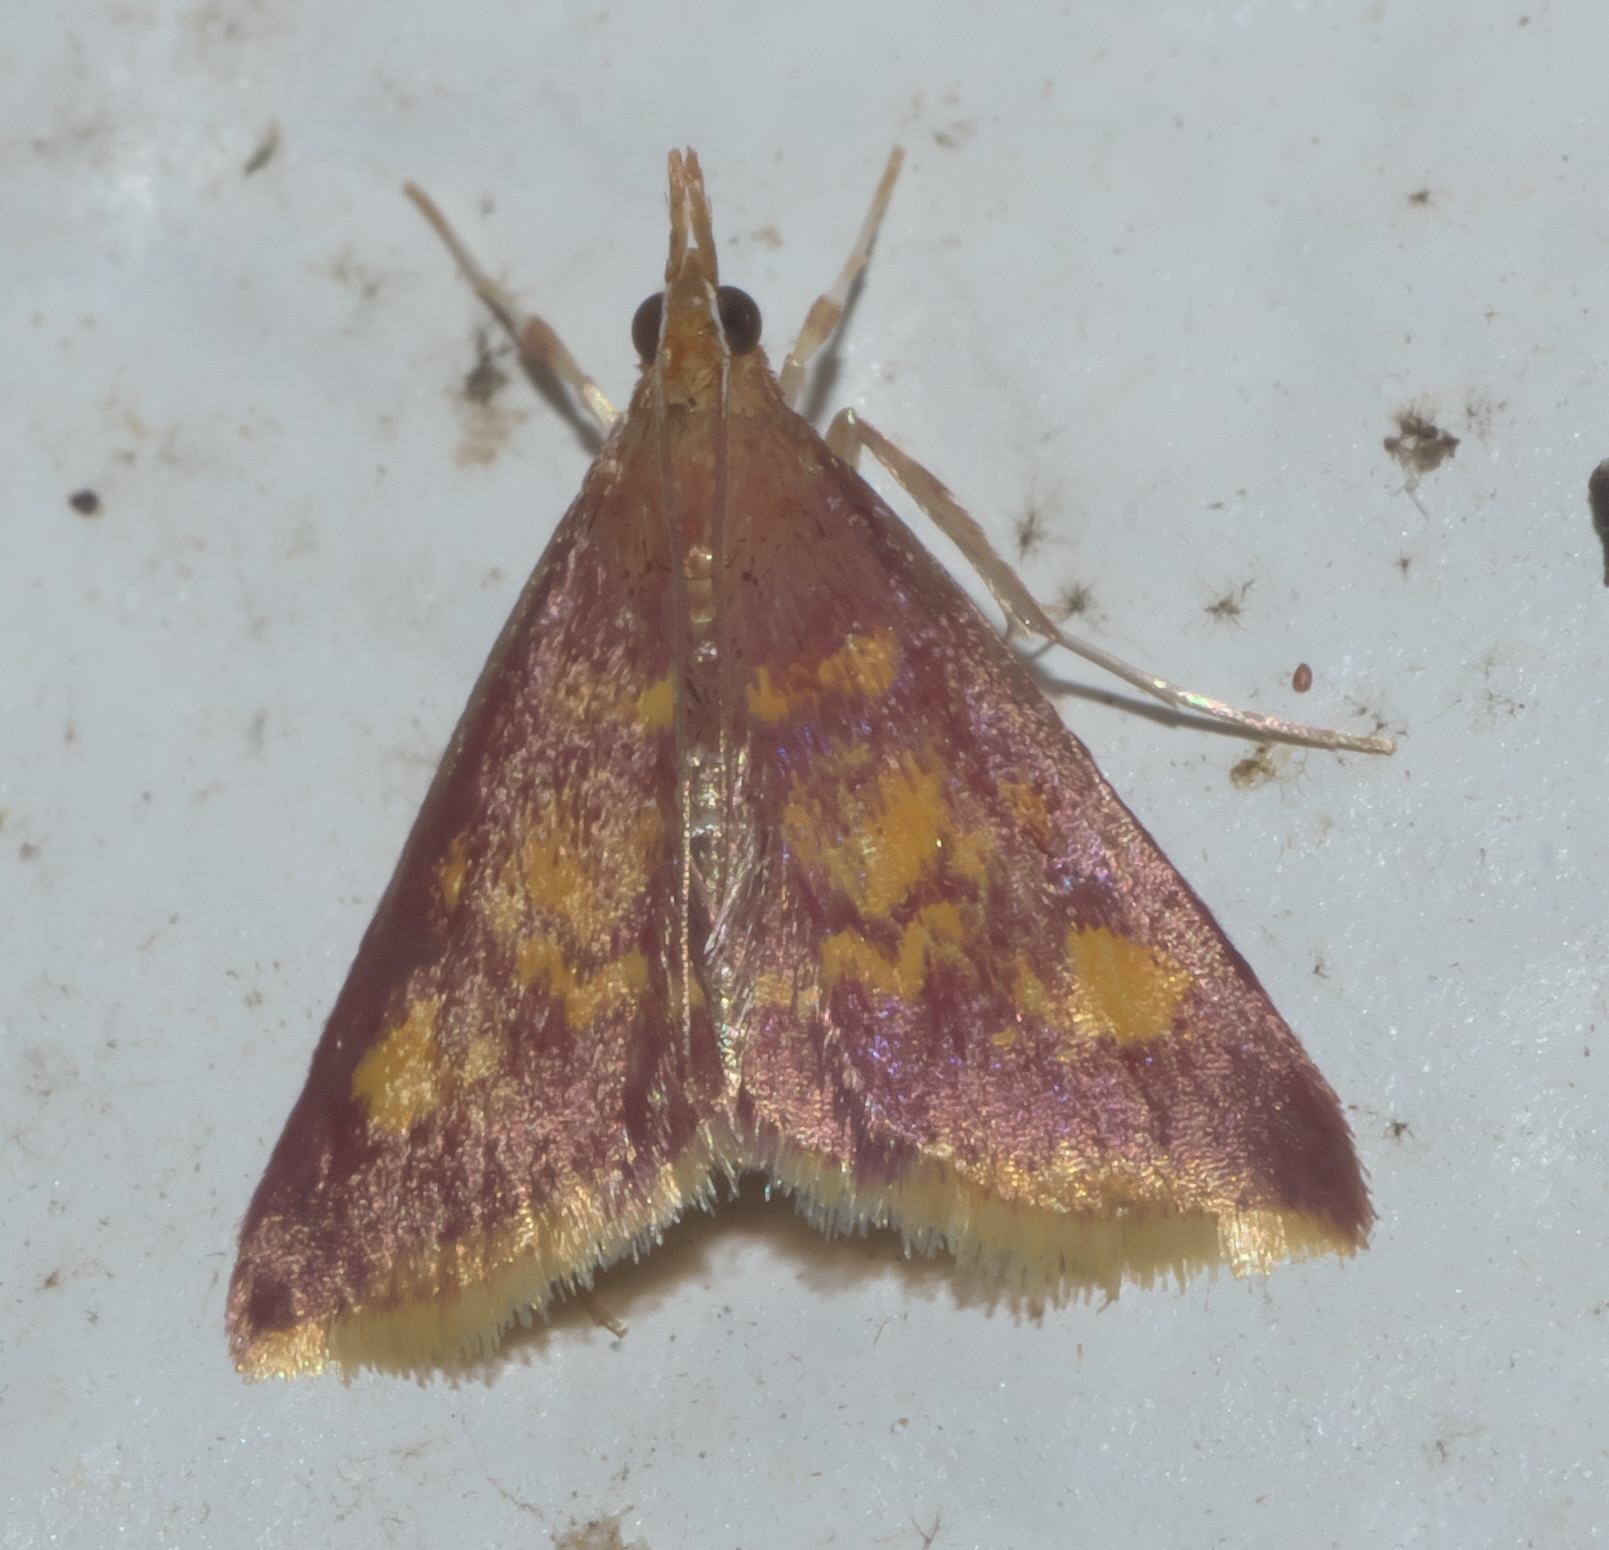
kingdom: Animalia
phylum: Arthropoda
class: Insecta
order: Lepidoptera
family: Crambidae
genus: Pyrausta
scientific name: Pyrausta acrionalis
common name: Mint-loving pyrausta moth
